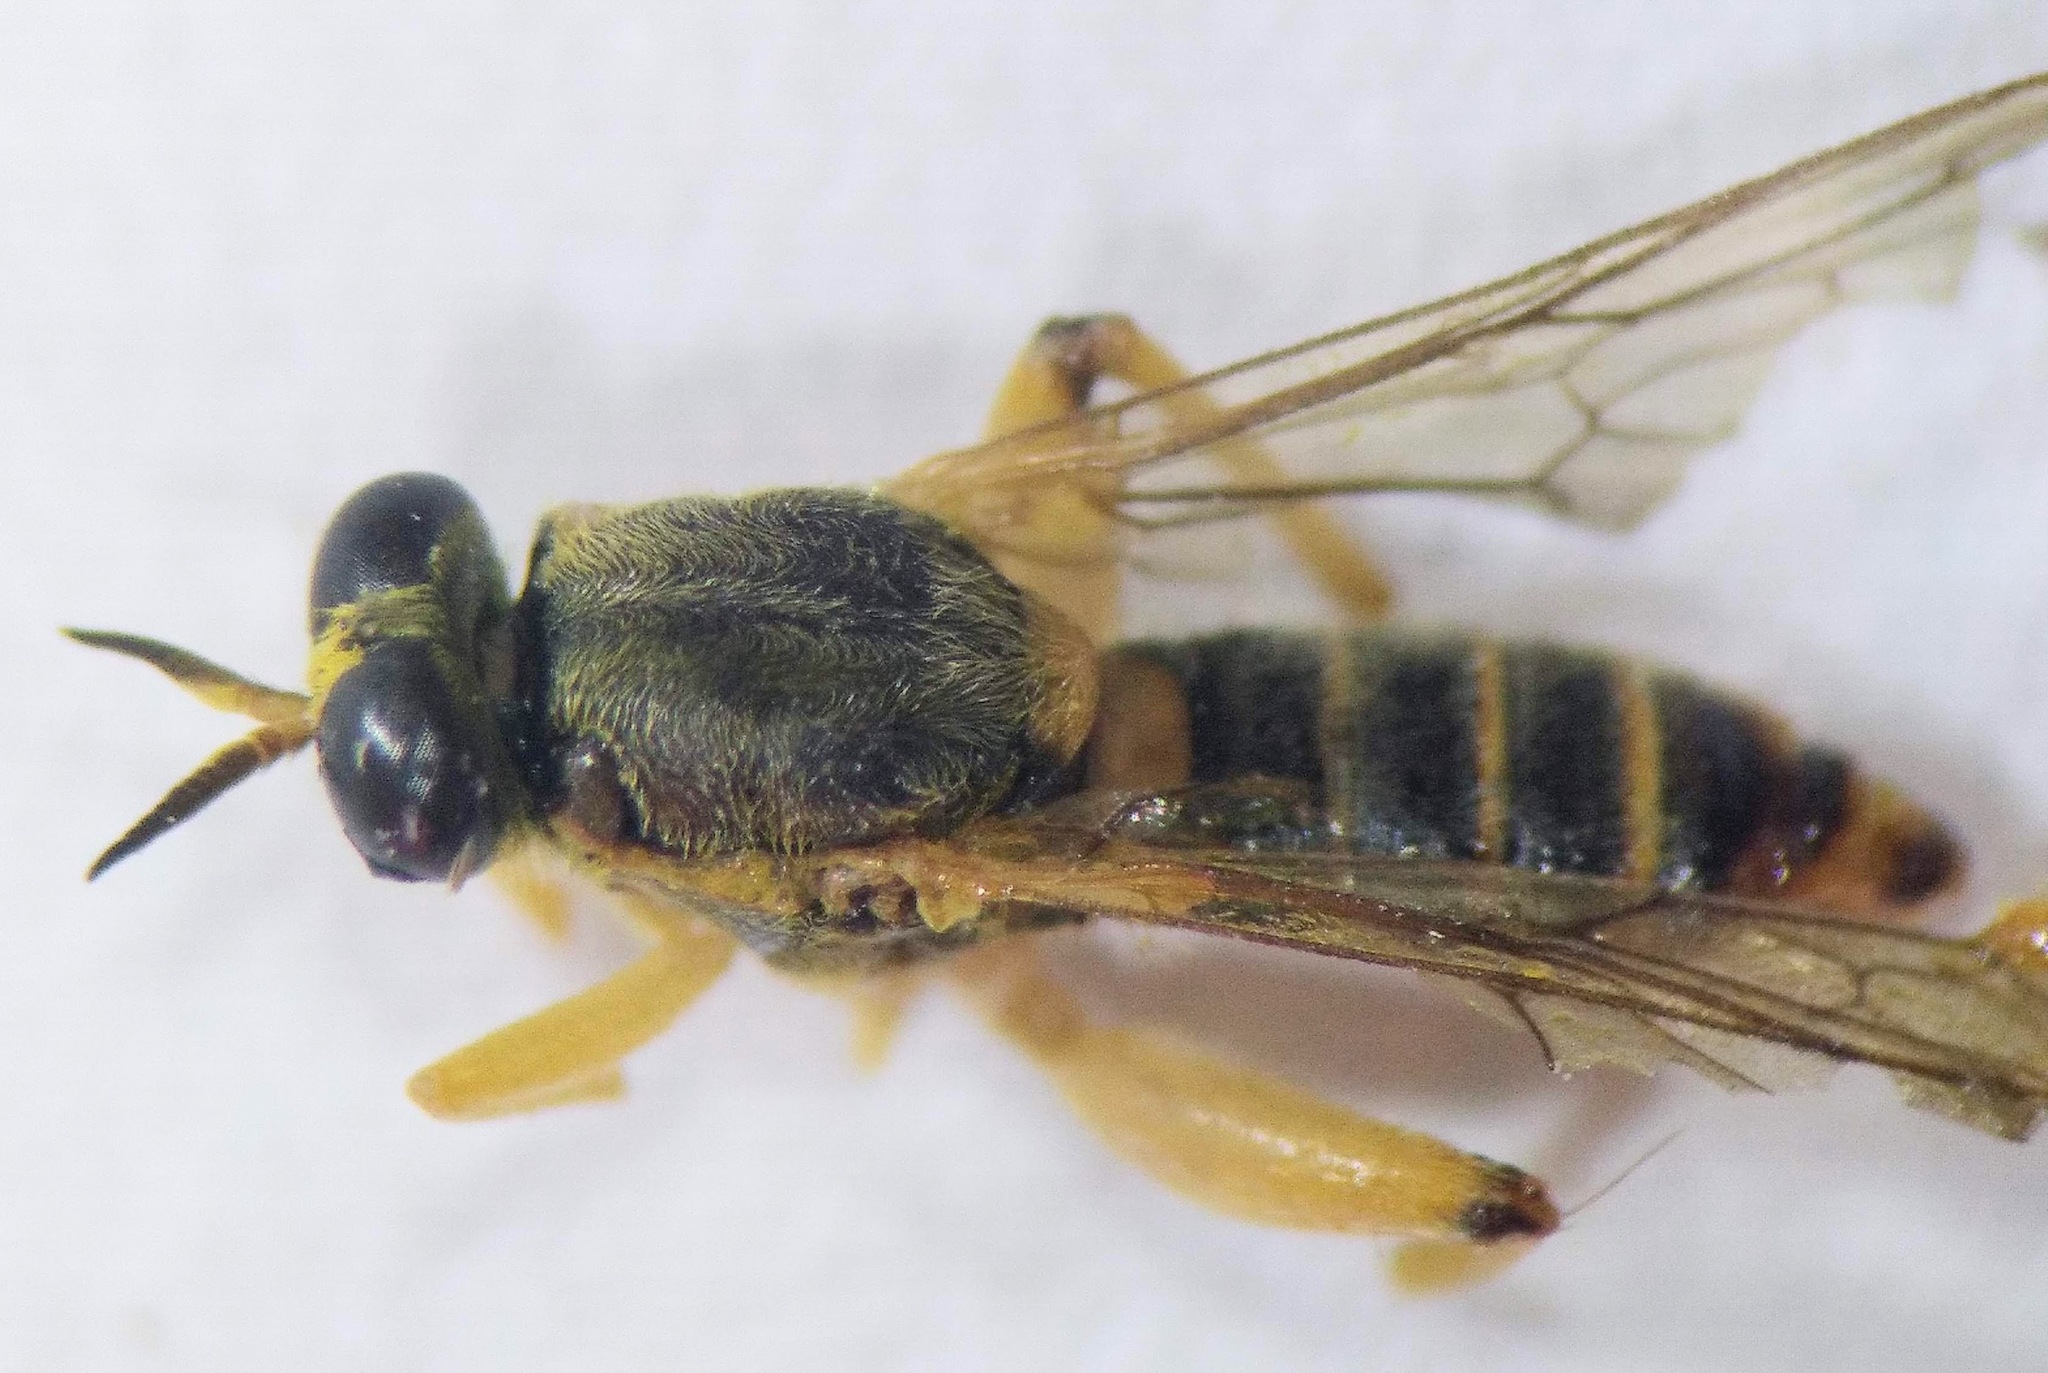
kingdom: Animalia
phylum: Arthropoda
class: Insecta
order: Diptera
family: Xylomyidae
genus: Solva
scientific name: Solva pallipes
